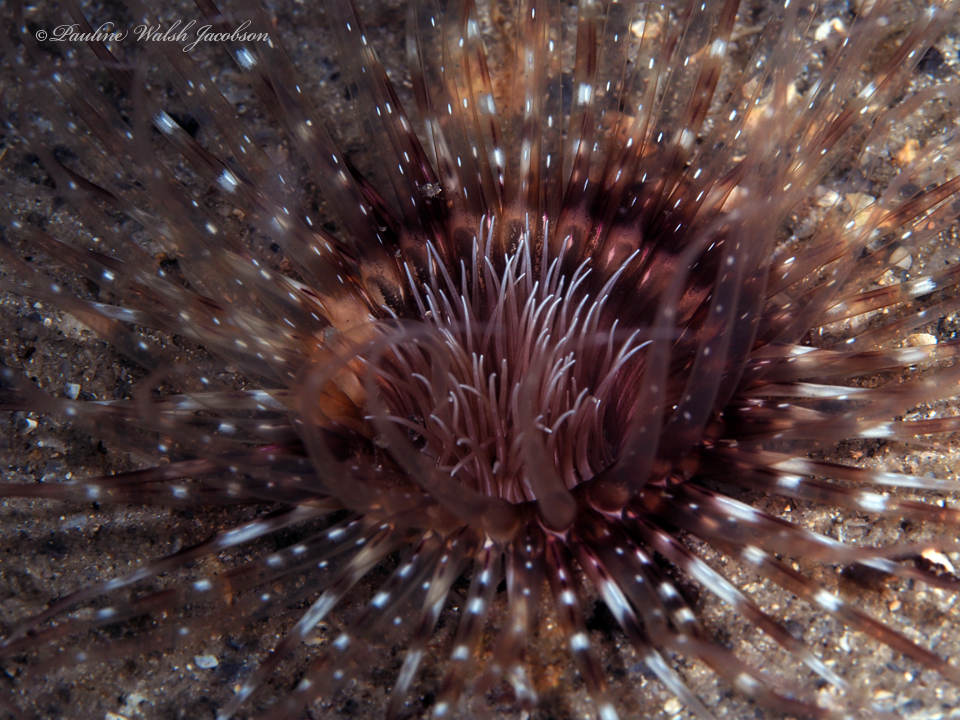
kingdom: Animalia
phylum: Cnidaria
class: Anthozoa
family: Cerianthidae
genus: Ceriantheopsis
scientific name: Ceriantheopsis americana
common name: American tube-dwelling anemone
